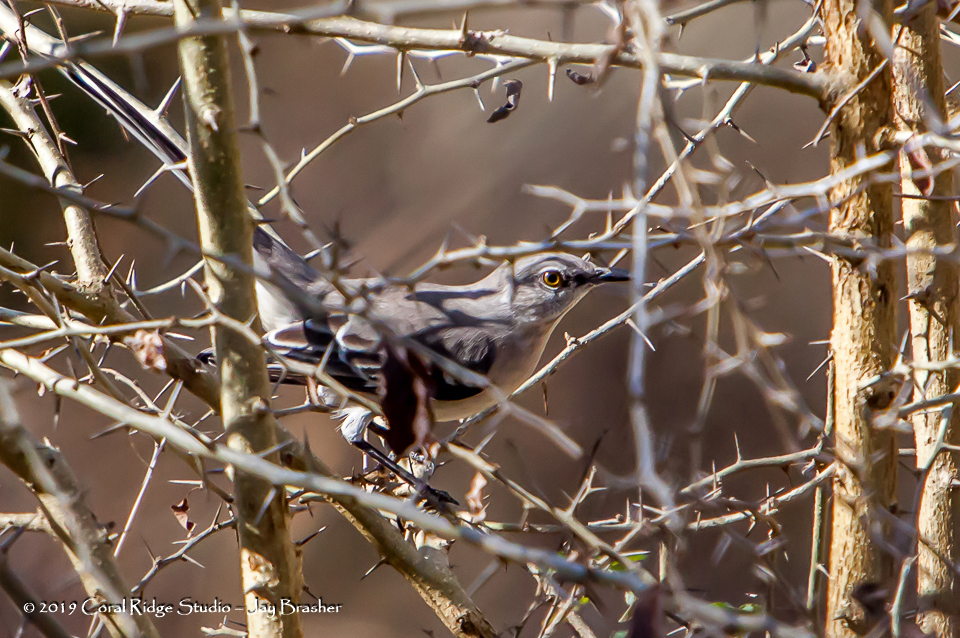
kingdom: Animalia
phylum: Chordata
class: Aves
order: Passeriformes
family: Mimidae
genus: Mimus
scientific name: Mimus polyglottos
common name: Northern mockingbird
